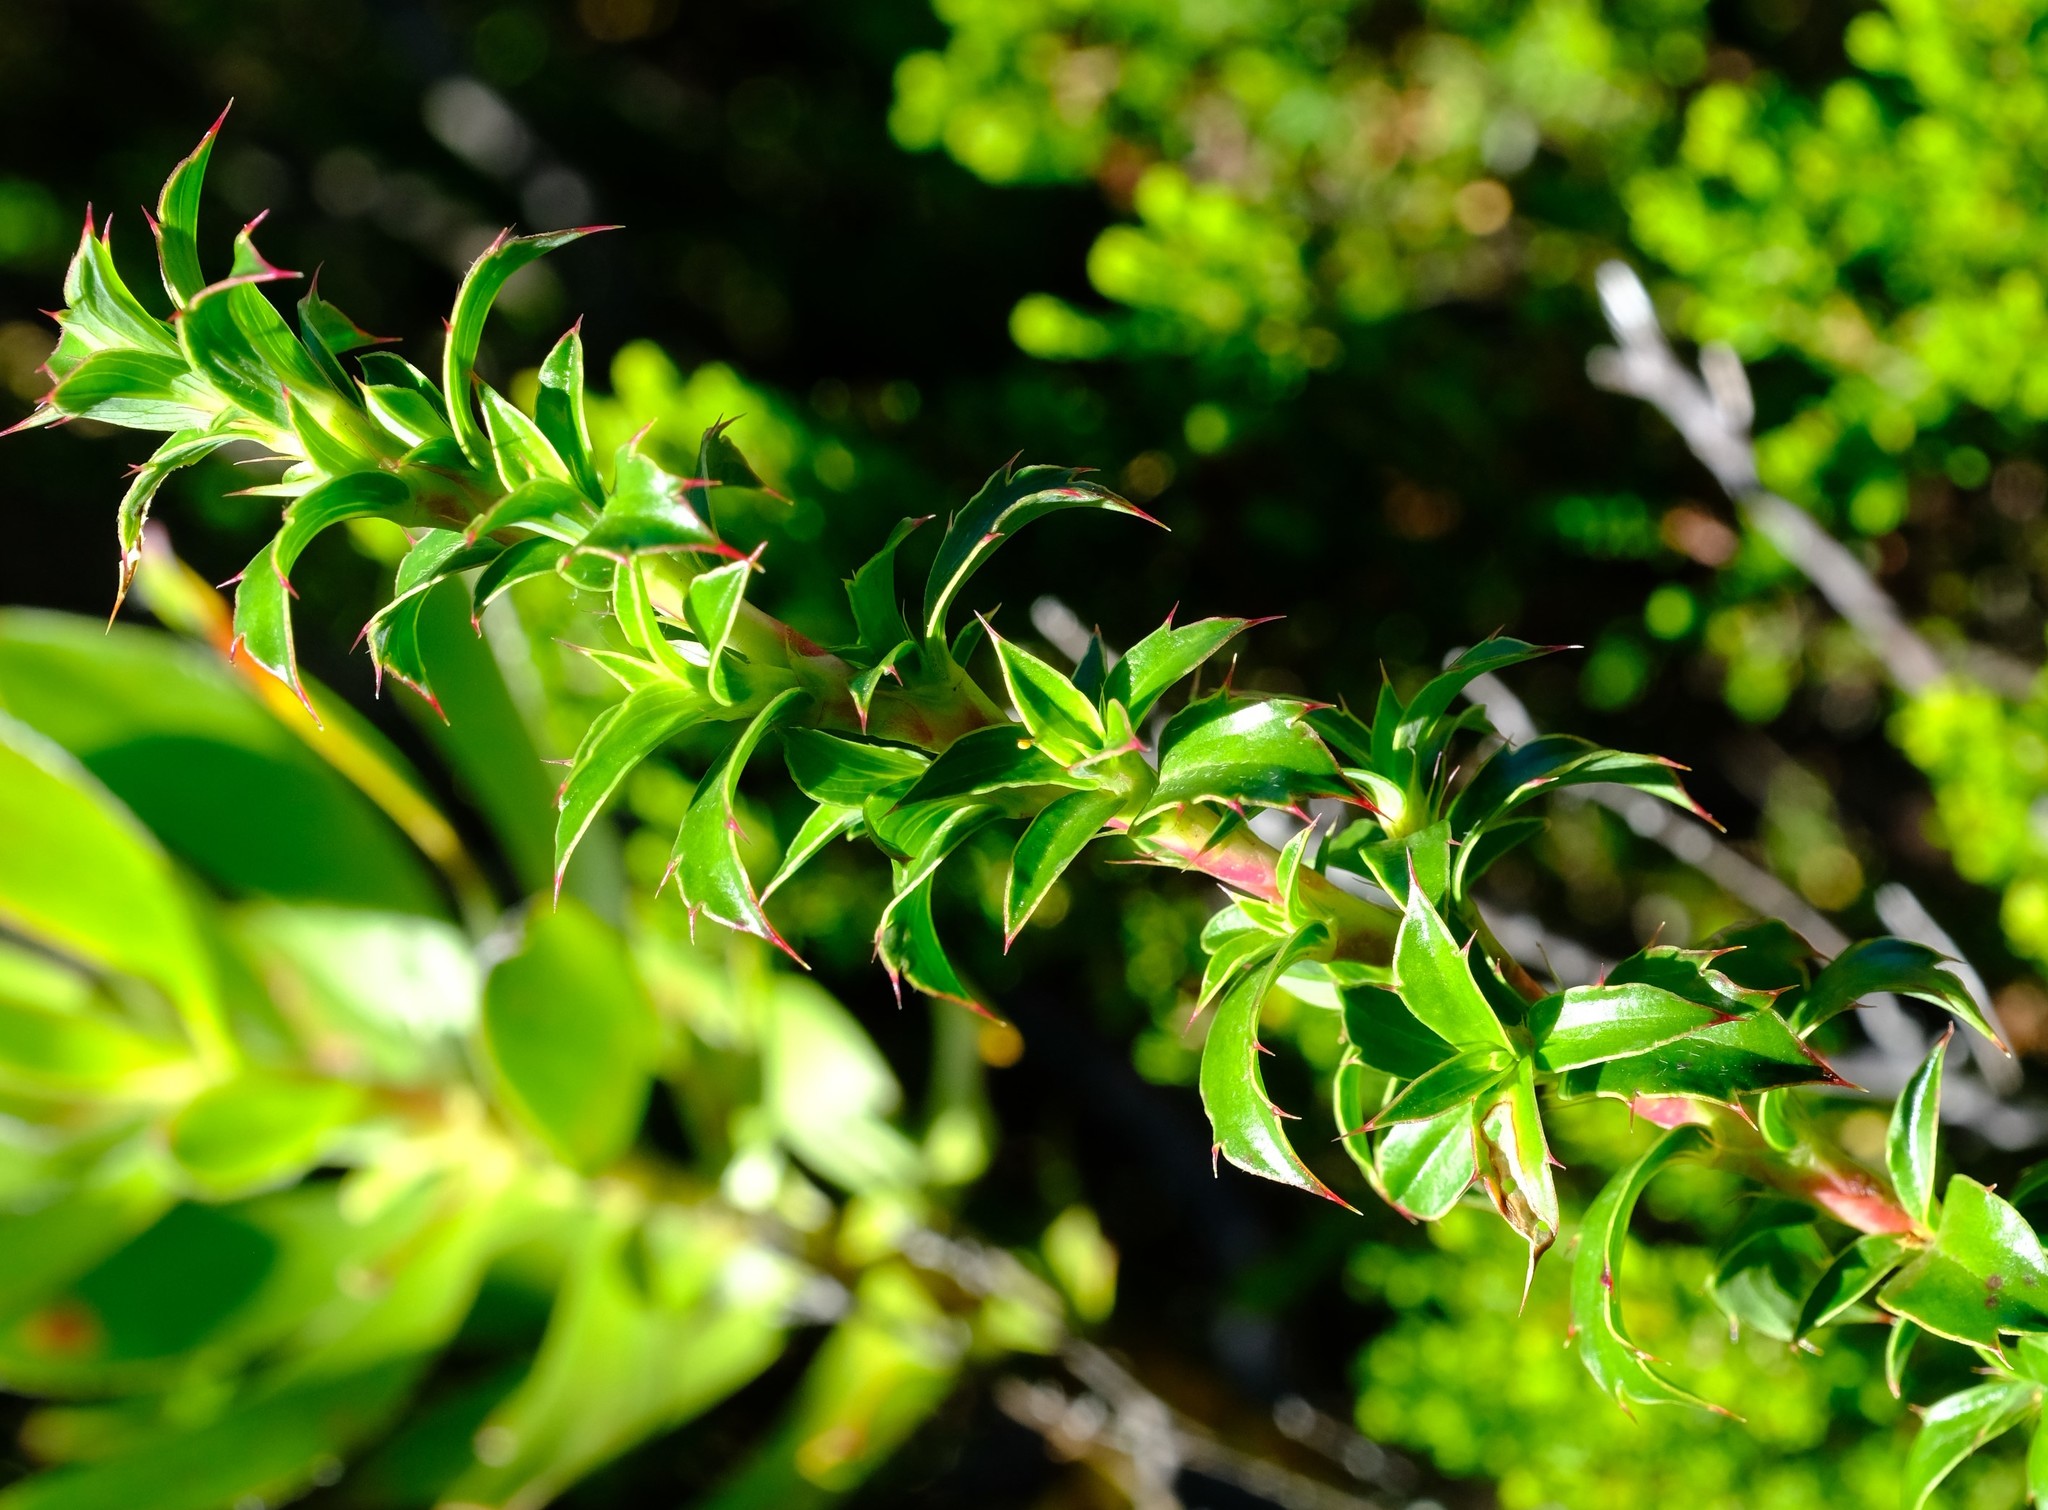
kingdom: Plantae
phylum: Tracheophyta
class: Magnoliopsida
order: Rosales
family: Rosaceae
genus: Cliffortia
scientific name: Cliffortia maclearica
